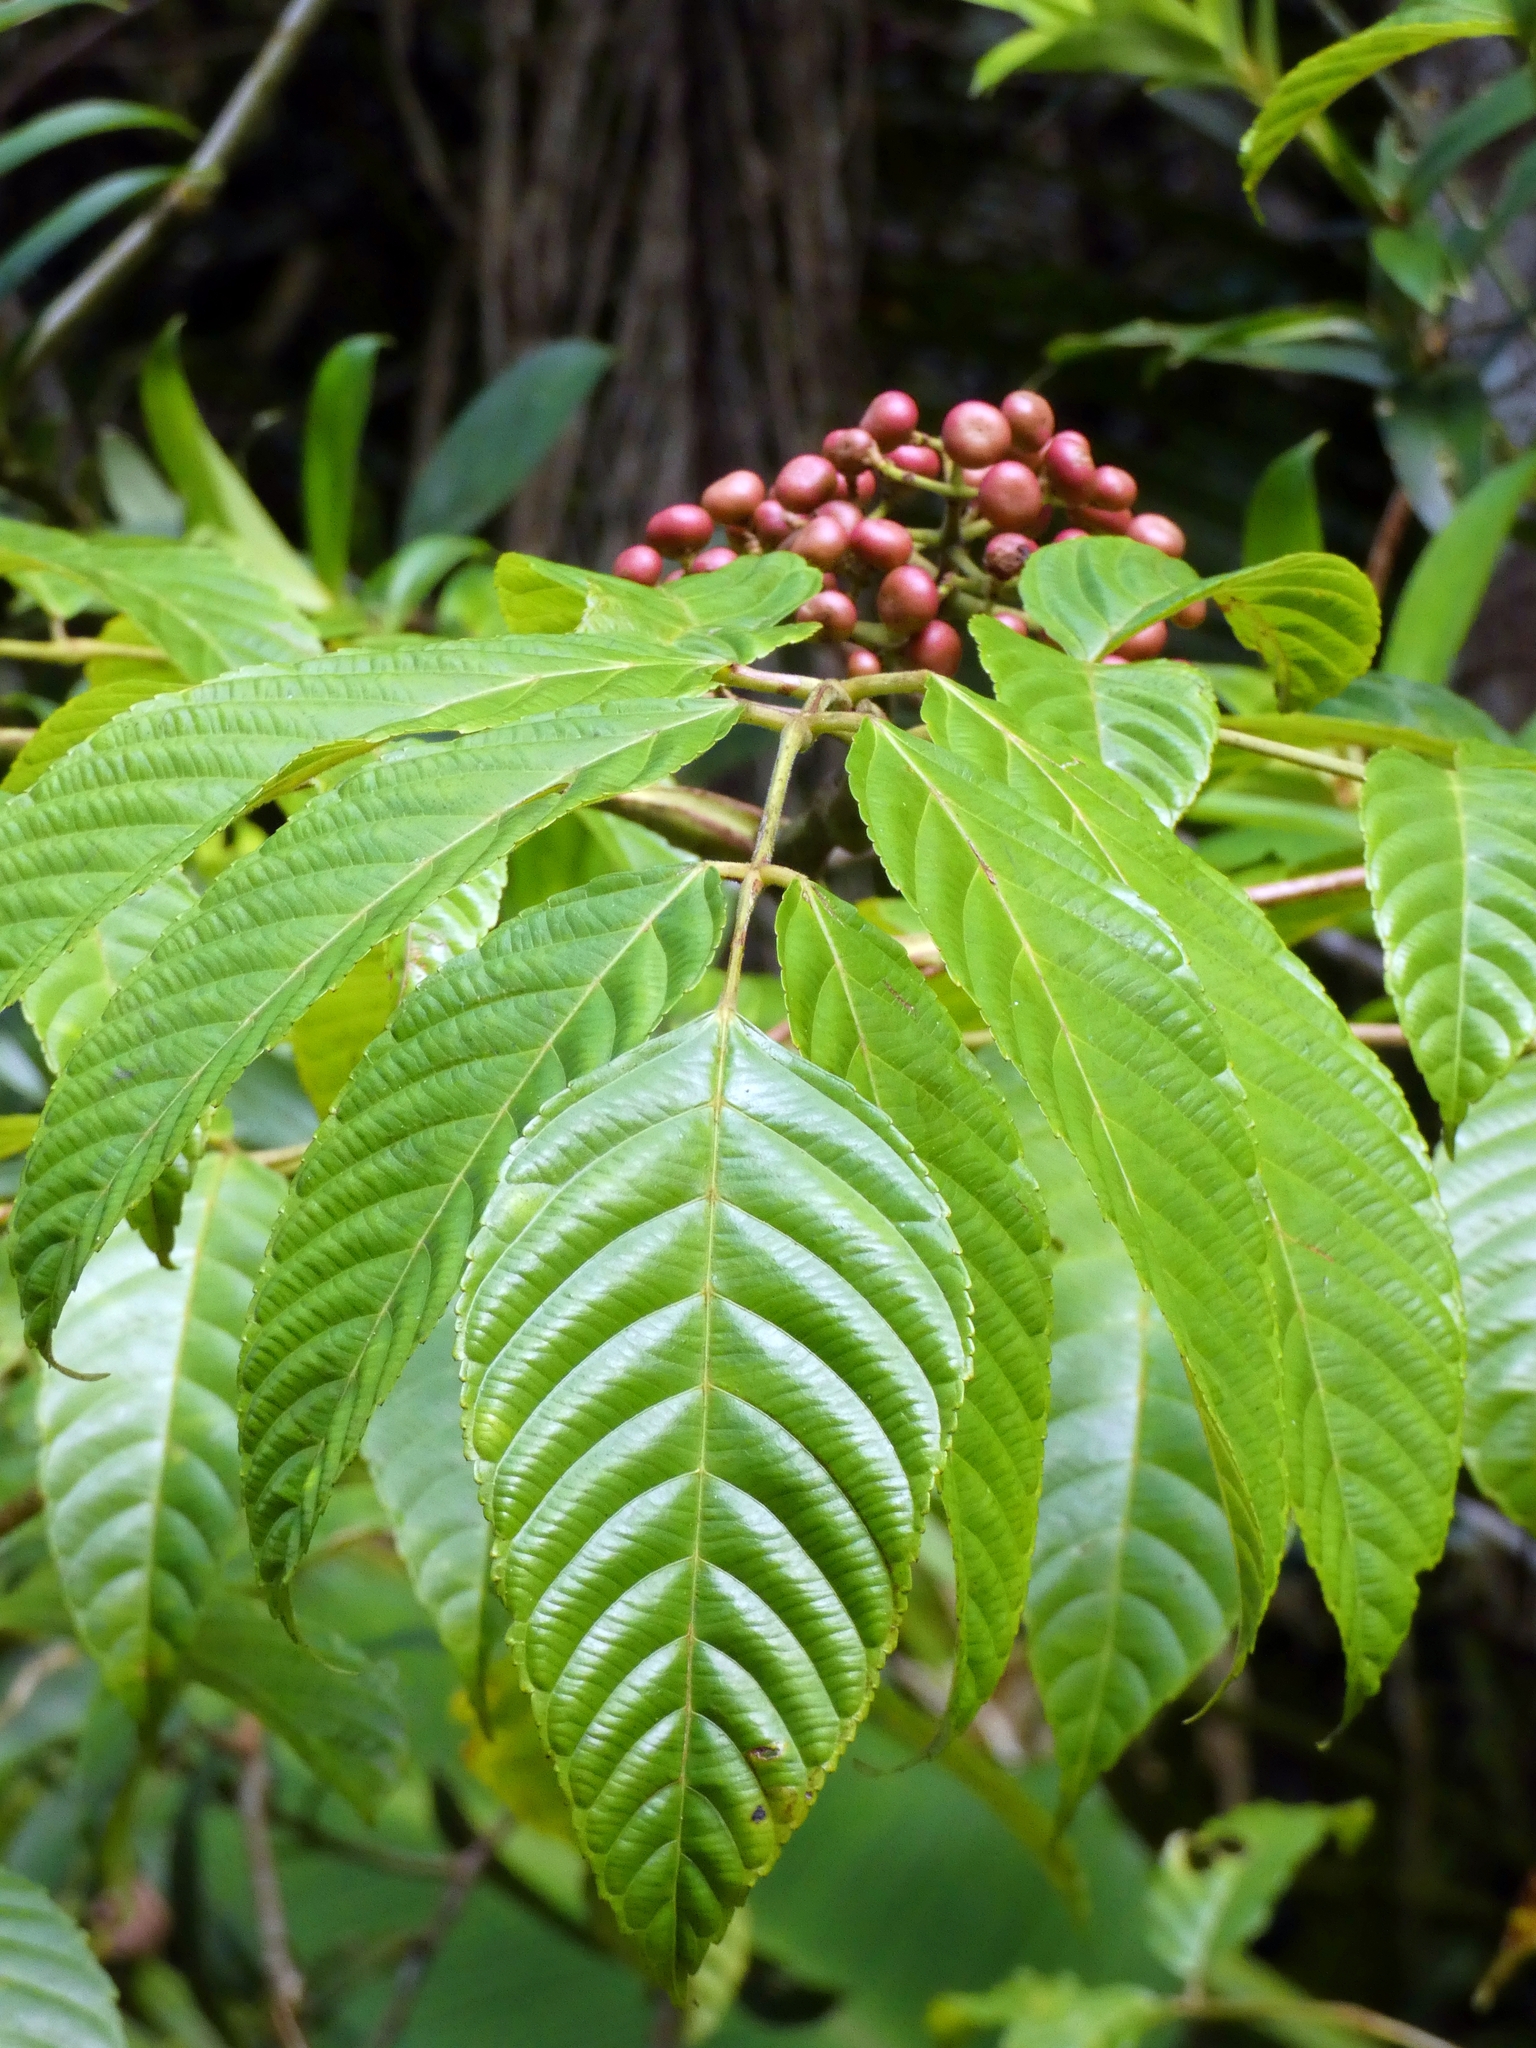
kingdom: Plantae
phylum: Tracheophyta
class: Magnoliopsida
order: Vitales
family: Vitaceae
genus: Leea
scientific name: Leea nova-guineensis
